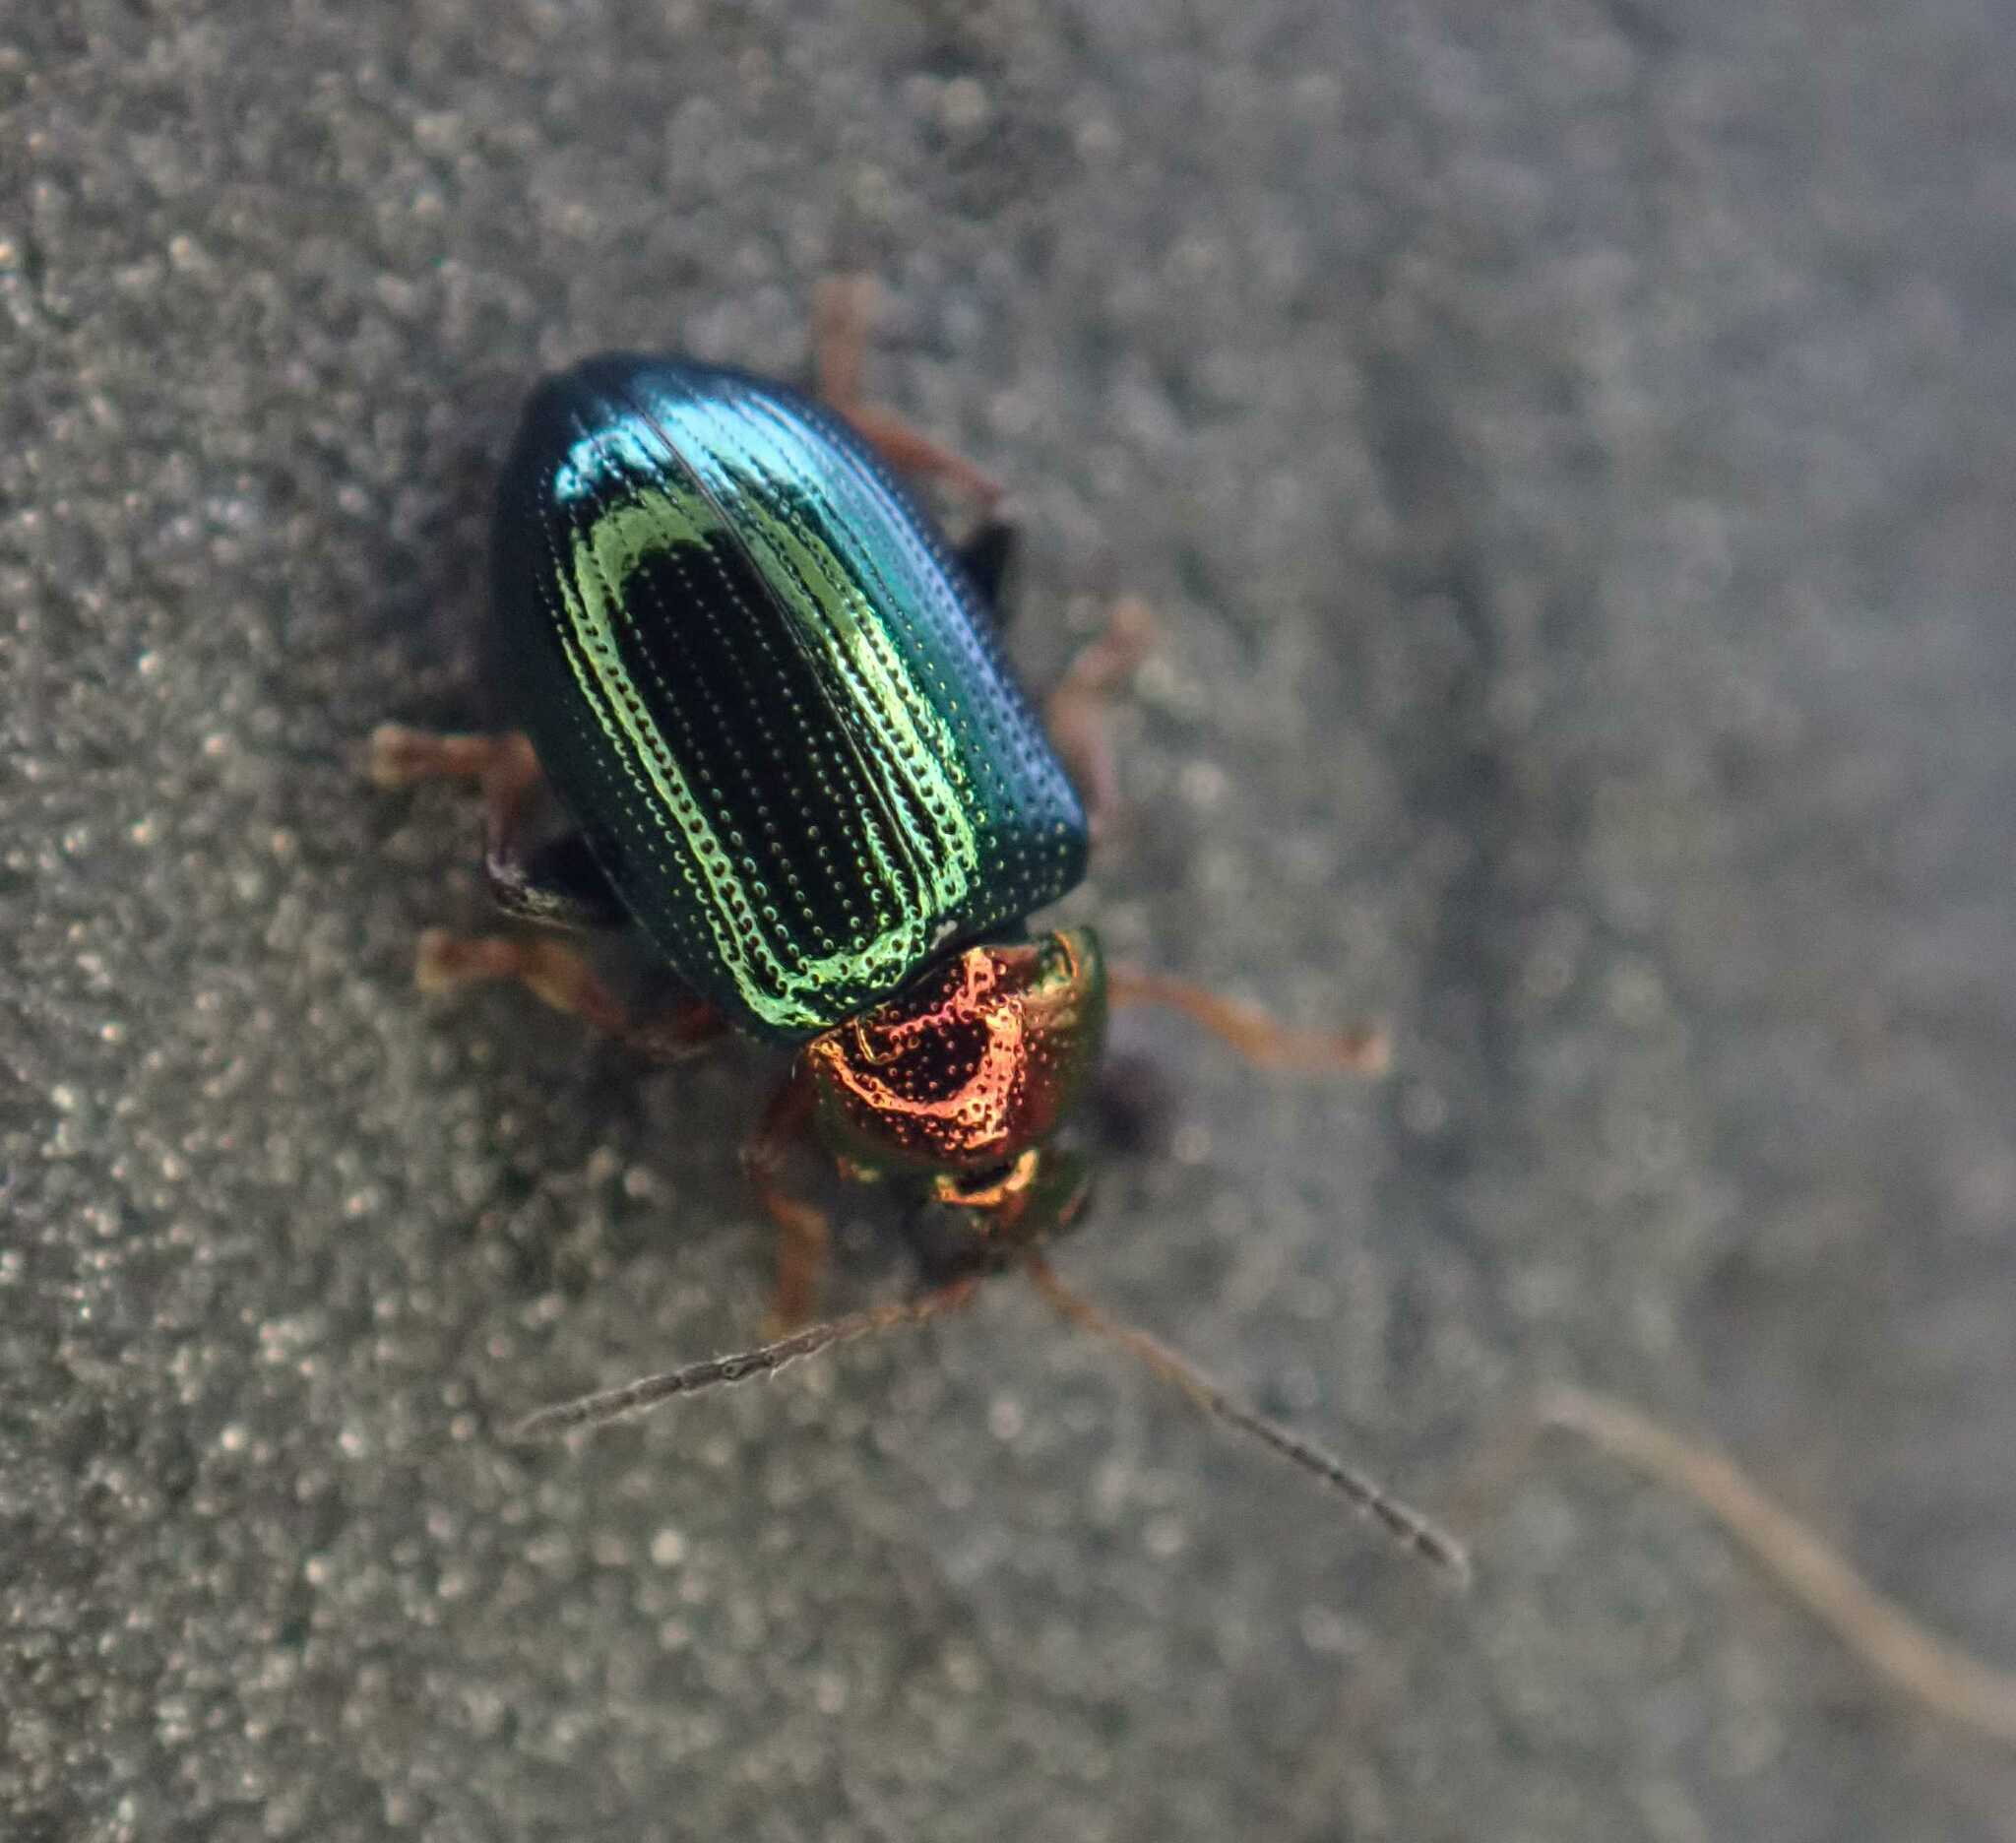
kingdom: Animalia
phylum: Arthropoda
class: Insecta
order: Coleoptera
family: Chrysomelidae
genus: Crepidodera
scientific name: Crepidodera aurata
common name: Willow flea beetle
